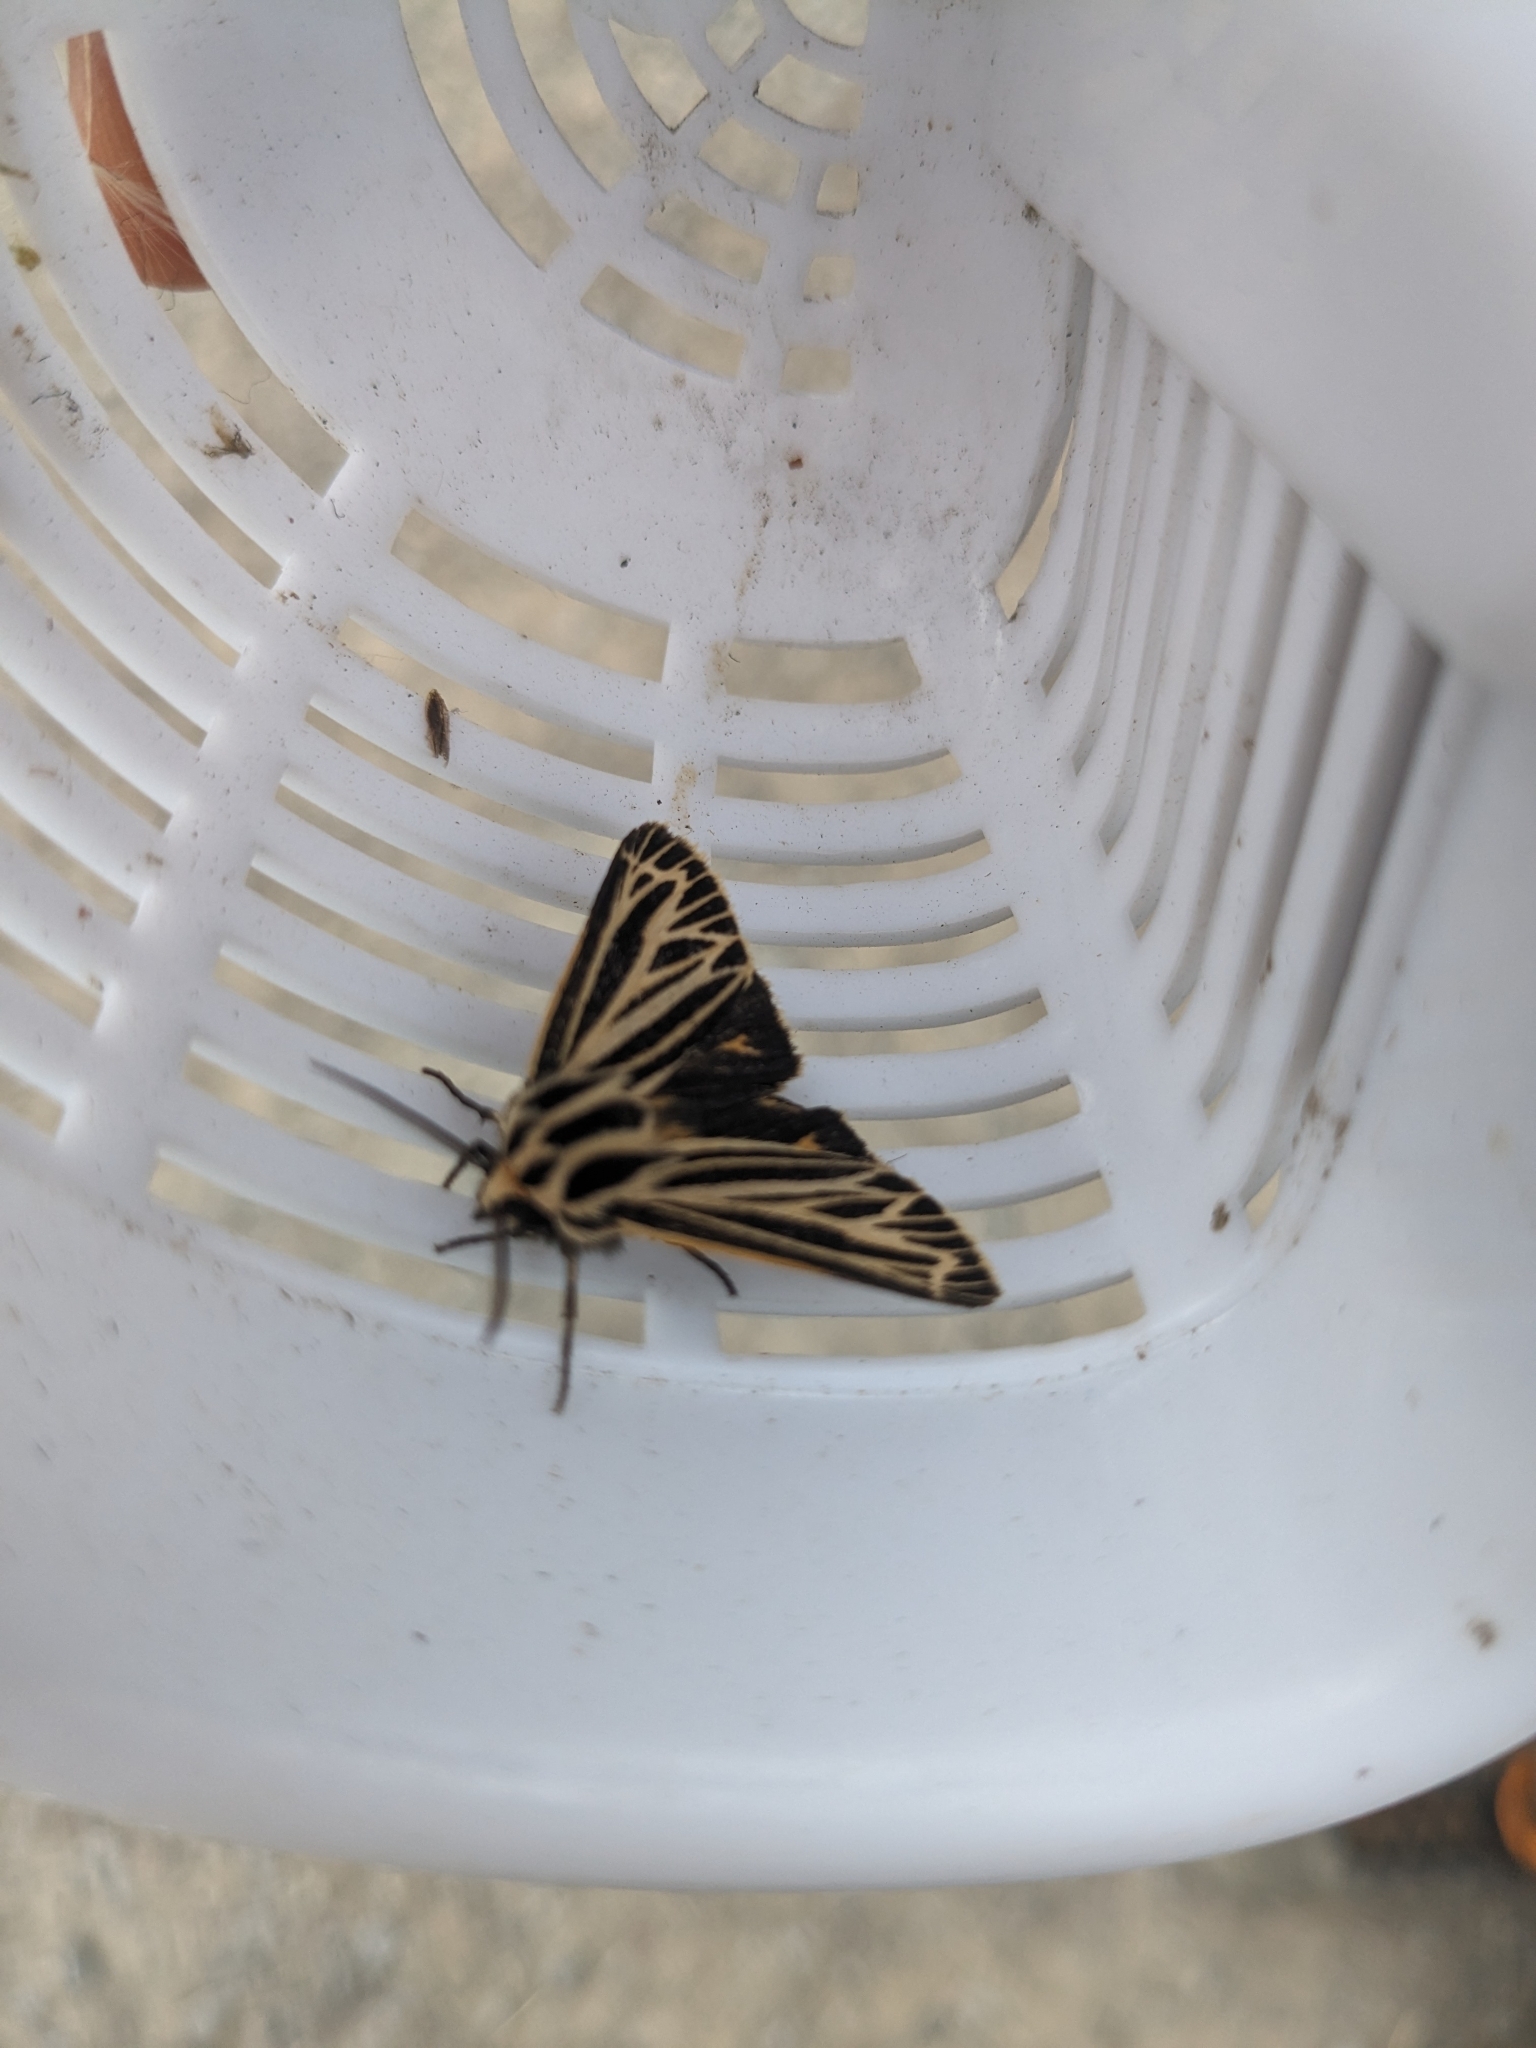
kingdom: Animalia
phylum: Arthropoda
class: Insecta
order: Lepidoptera
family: Erebidae
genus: Grammia
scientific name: Grammia virguncula
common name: Little tiger moth
